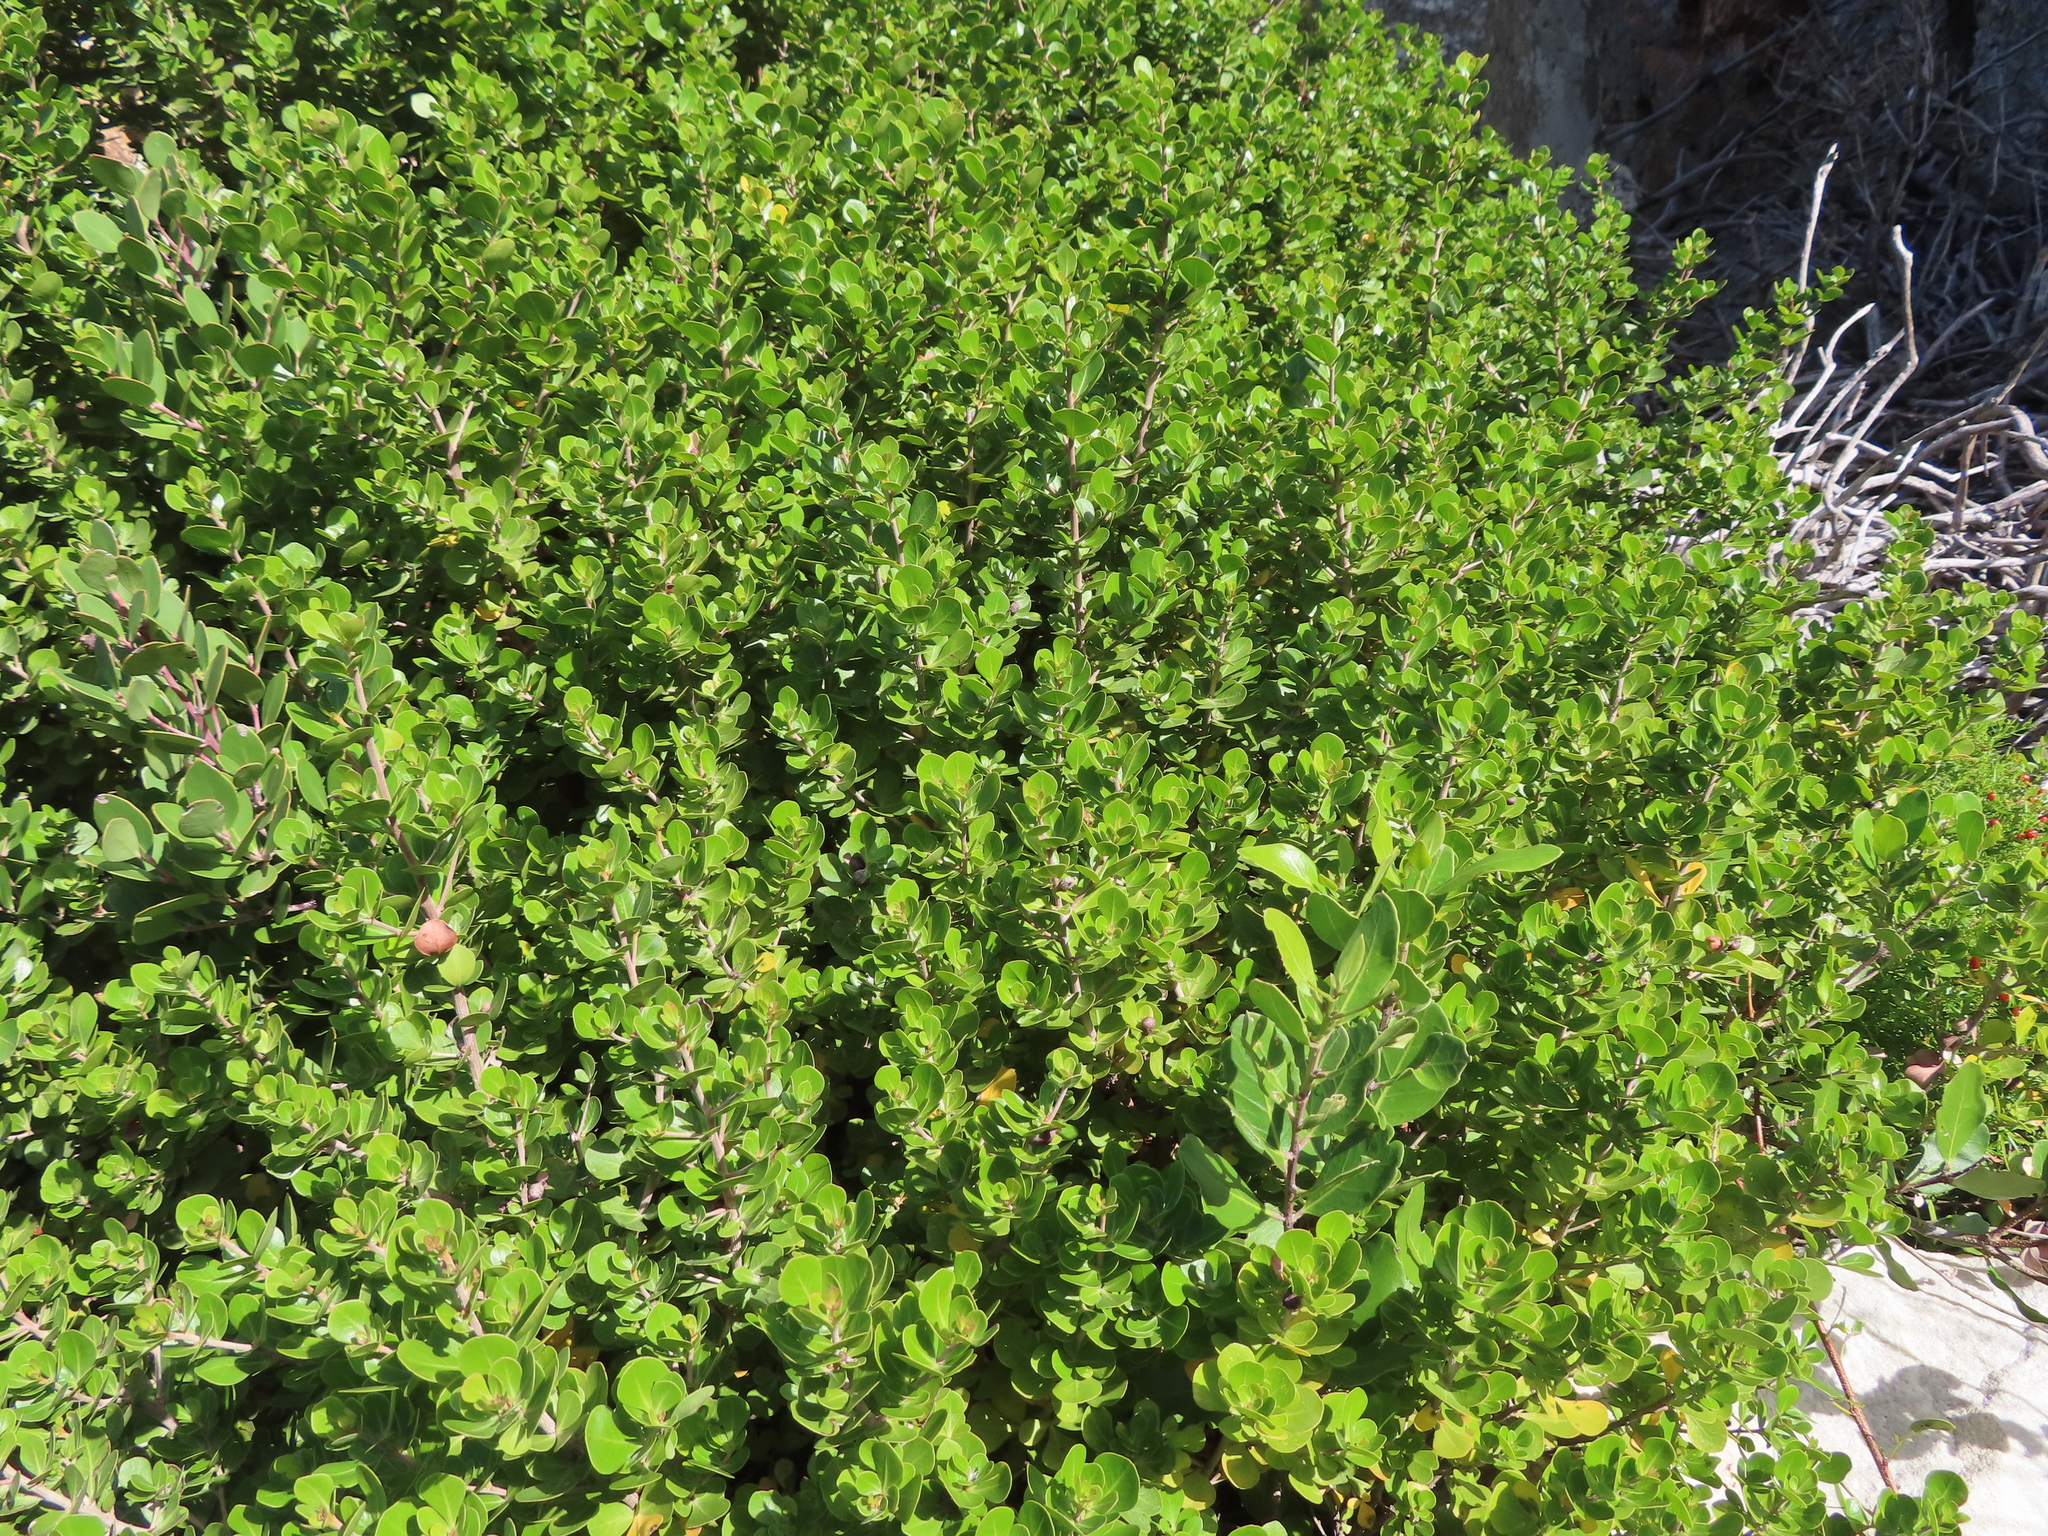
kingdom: Plantae
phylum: Tracheophyta
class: Magnoliopsida
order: Sapindales
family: Anacardiaceae
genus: Searsia
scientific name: Searsia lucida
